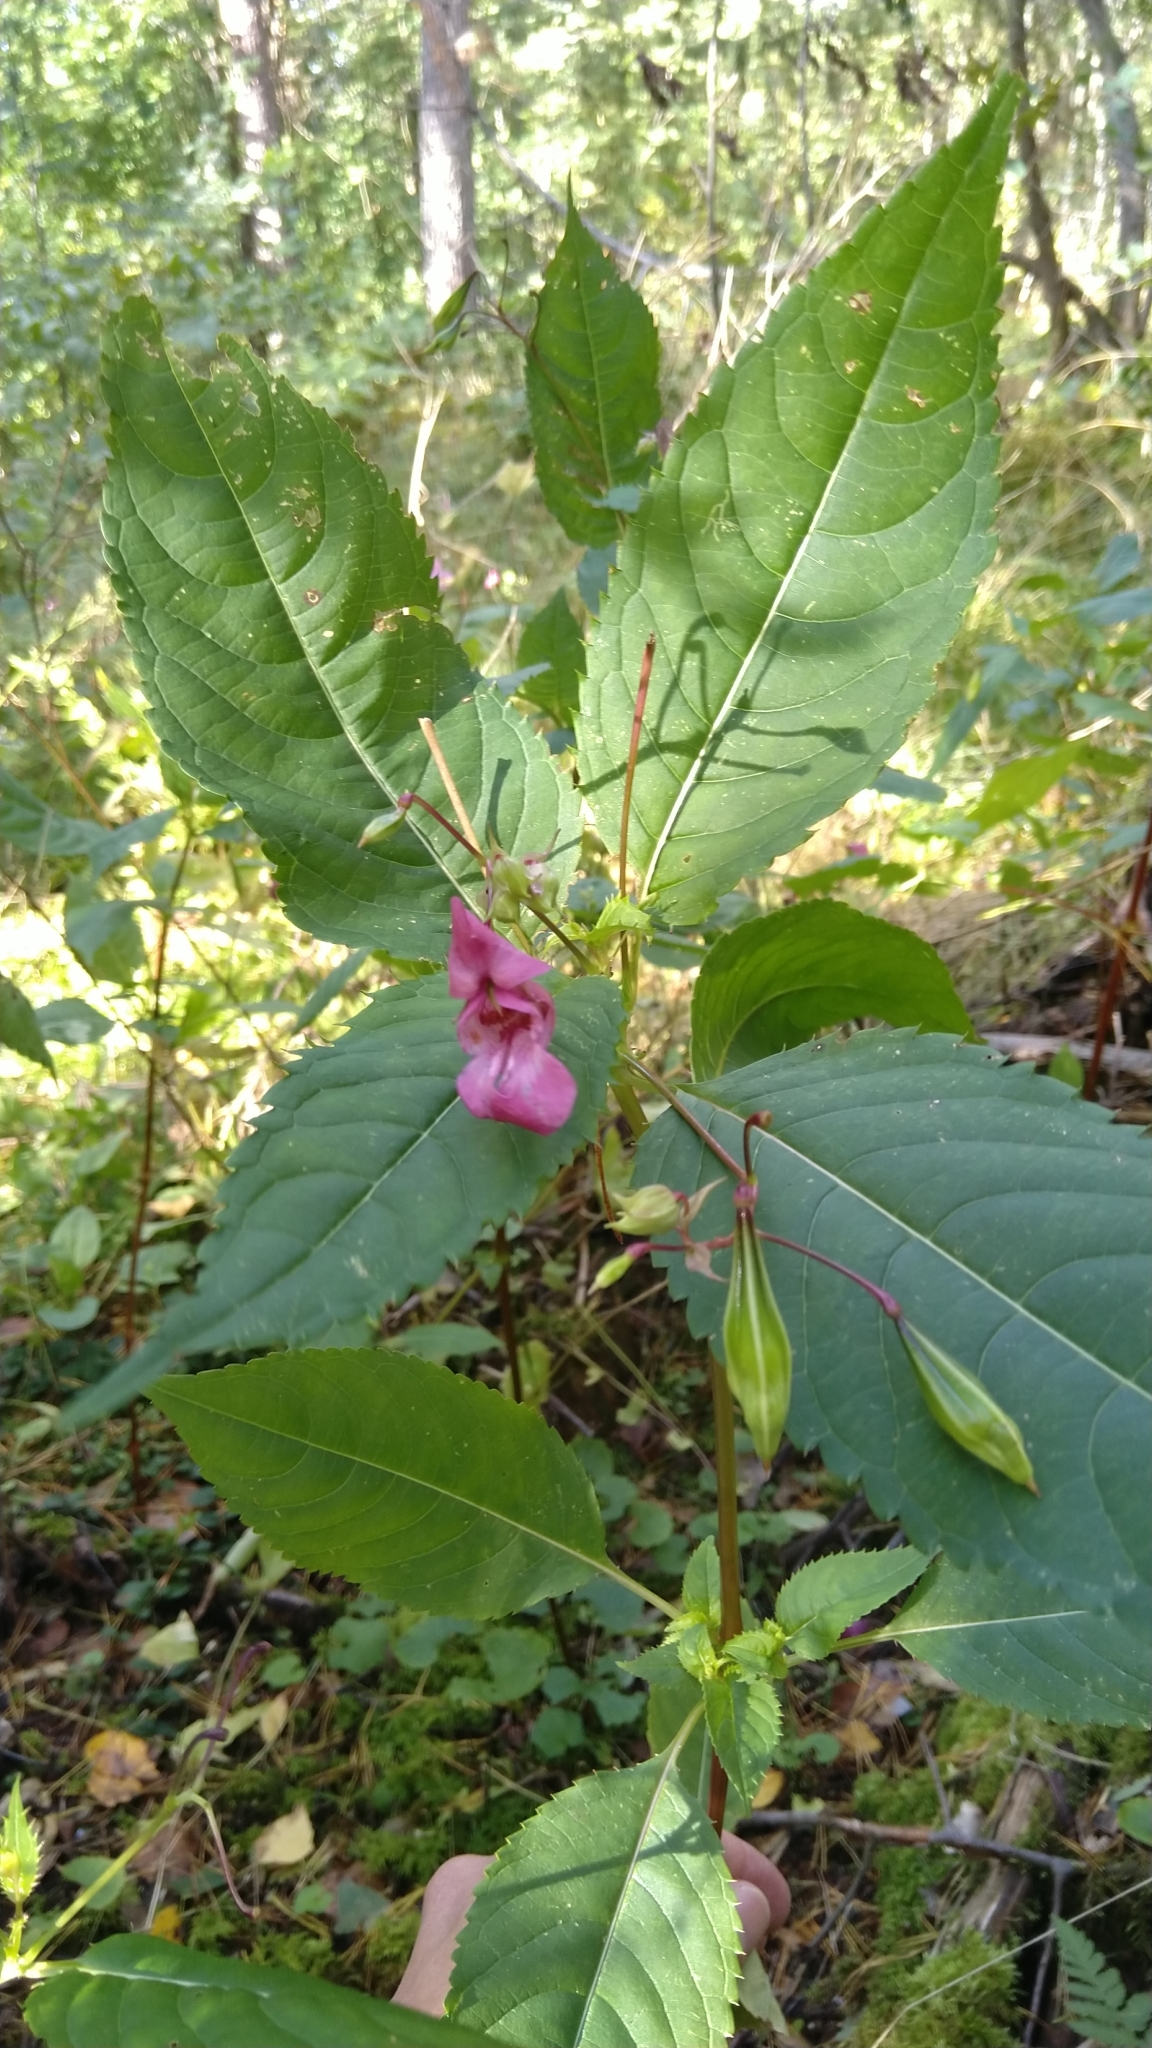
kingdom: Plantae
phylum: Tracheophyta
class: Magnoliopsida
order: Ericales
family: Balsaminaceae
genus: Impatiens
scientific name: Impatiens glandulifera
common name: Himalayan balsam
